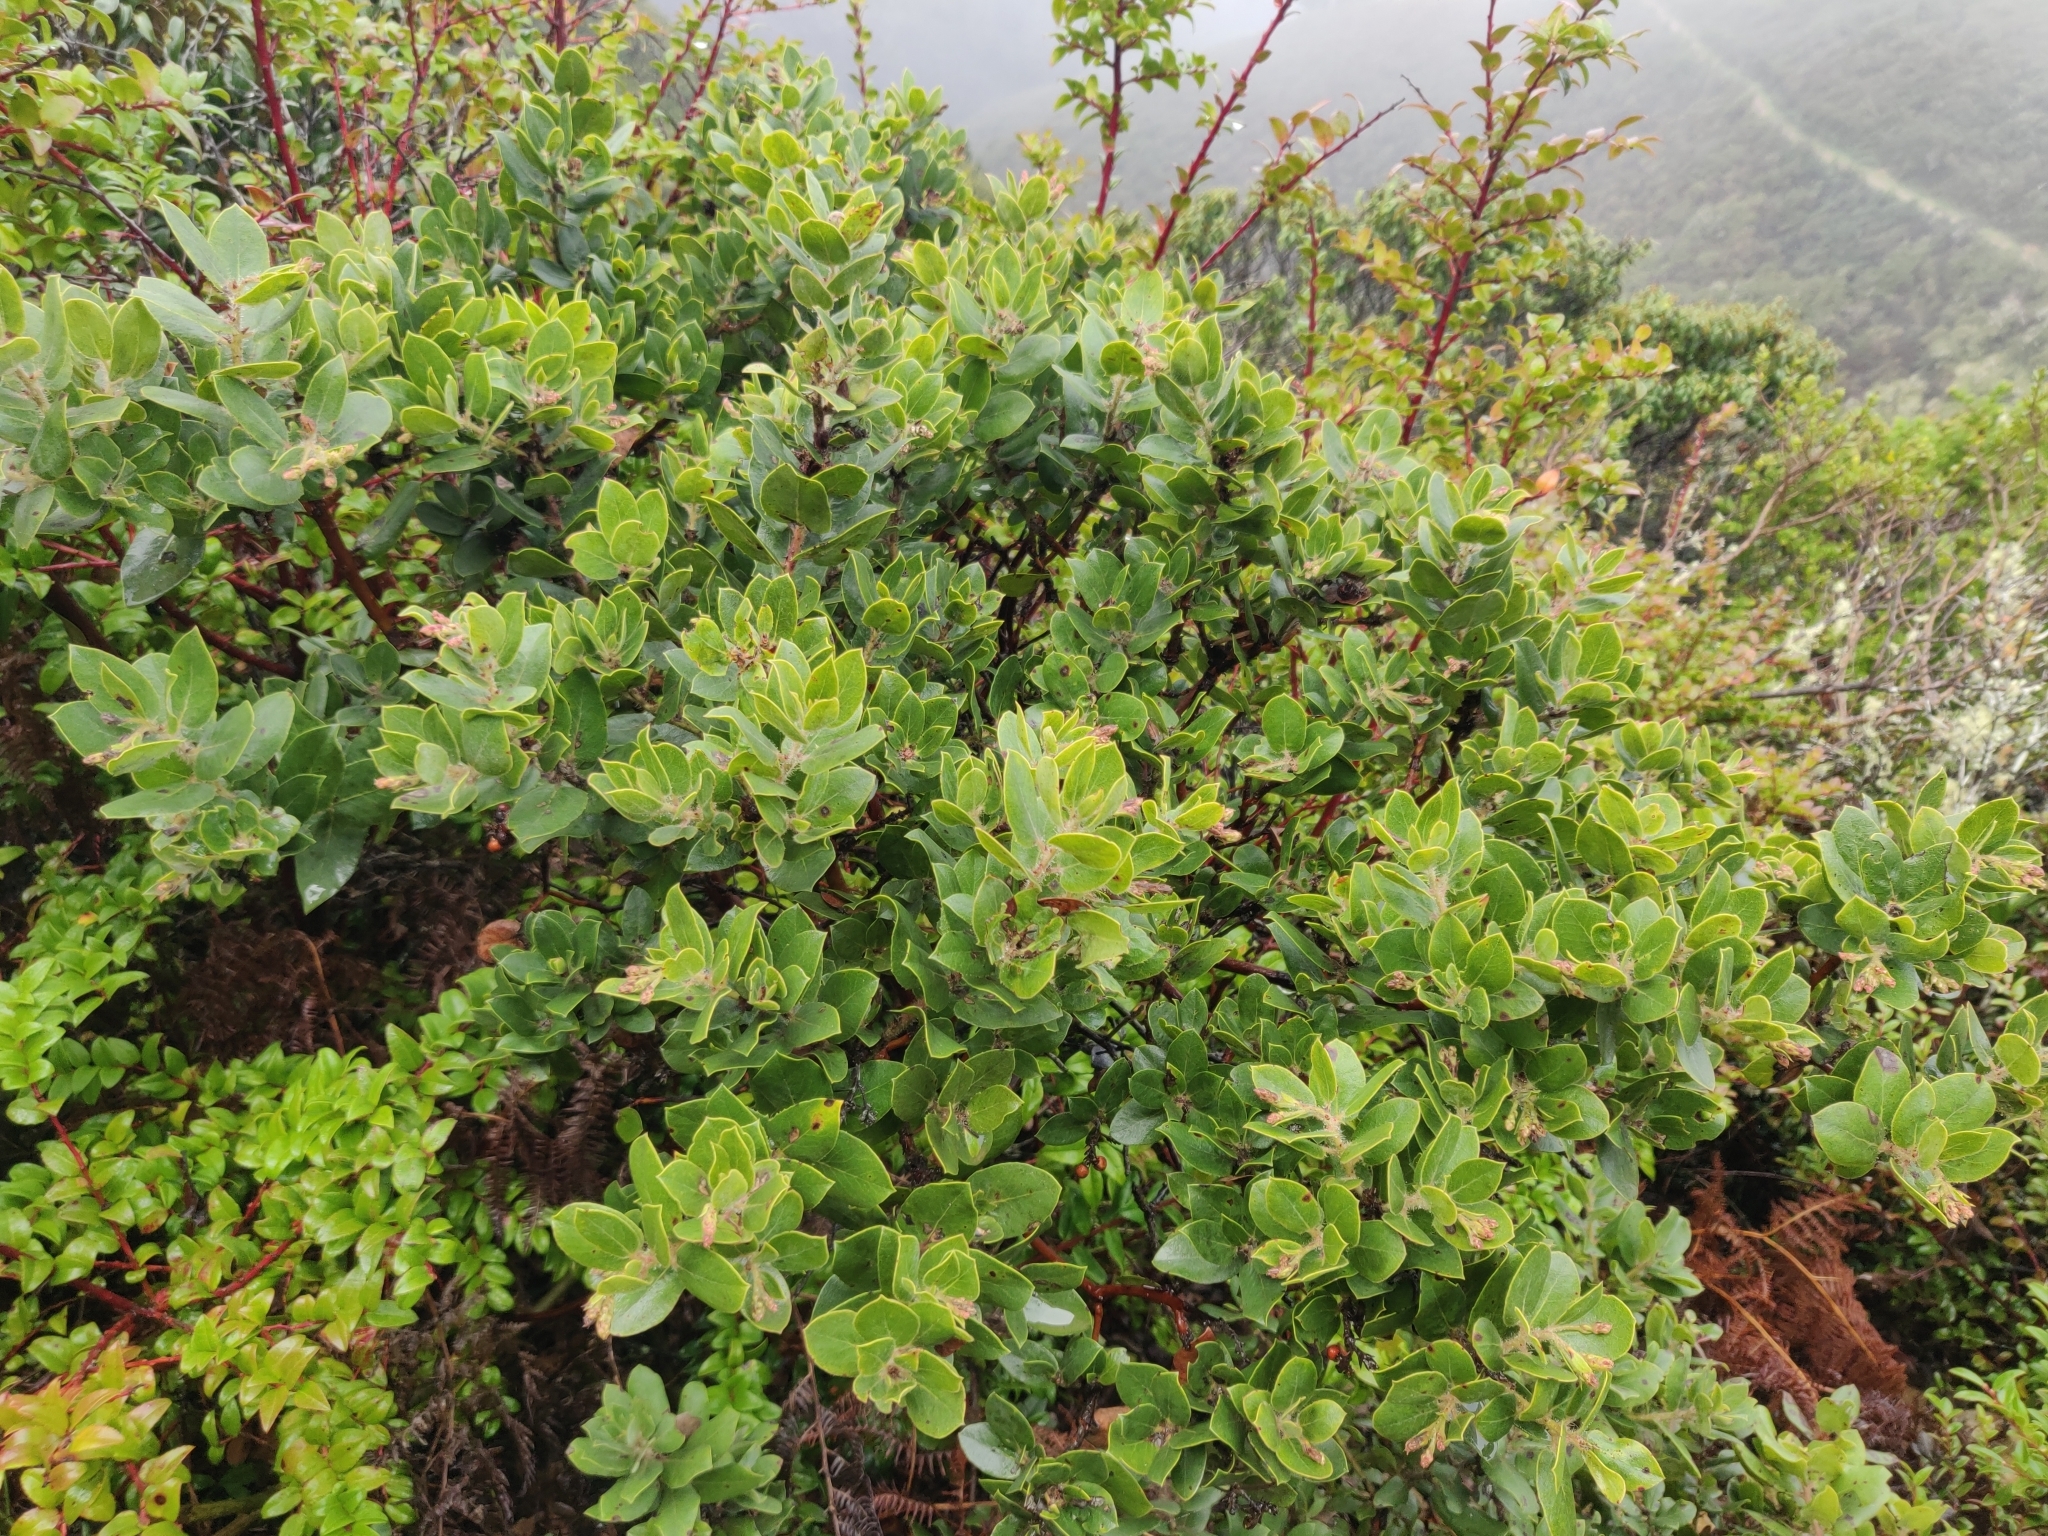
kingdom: Plantae
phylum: Tracheophyta
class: Magnoliopsida
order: Ericales
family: Ericaceae
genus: Arctostaphylos
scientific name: Arctostaphylos crustacea
